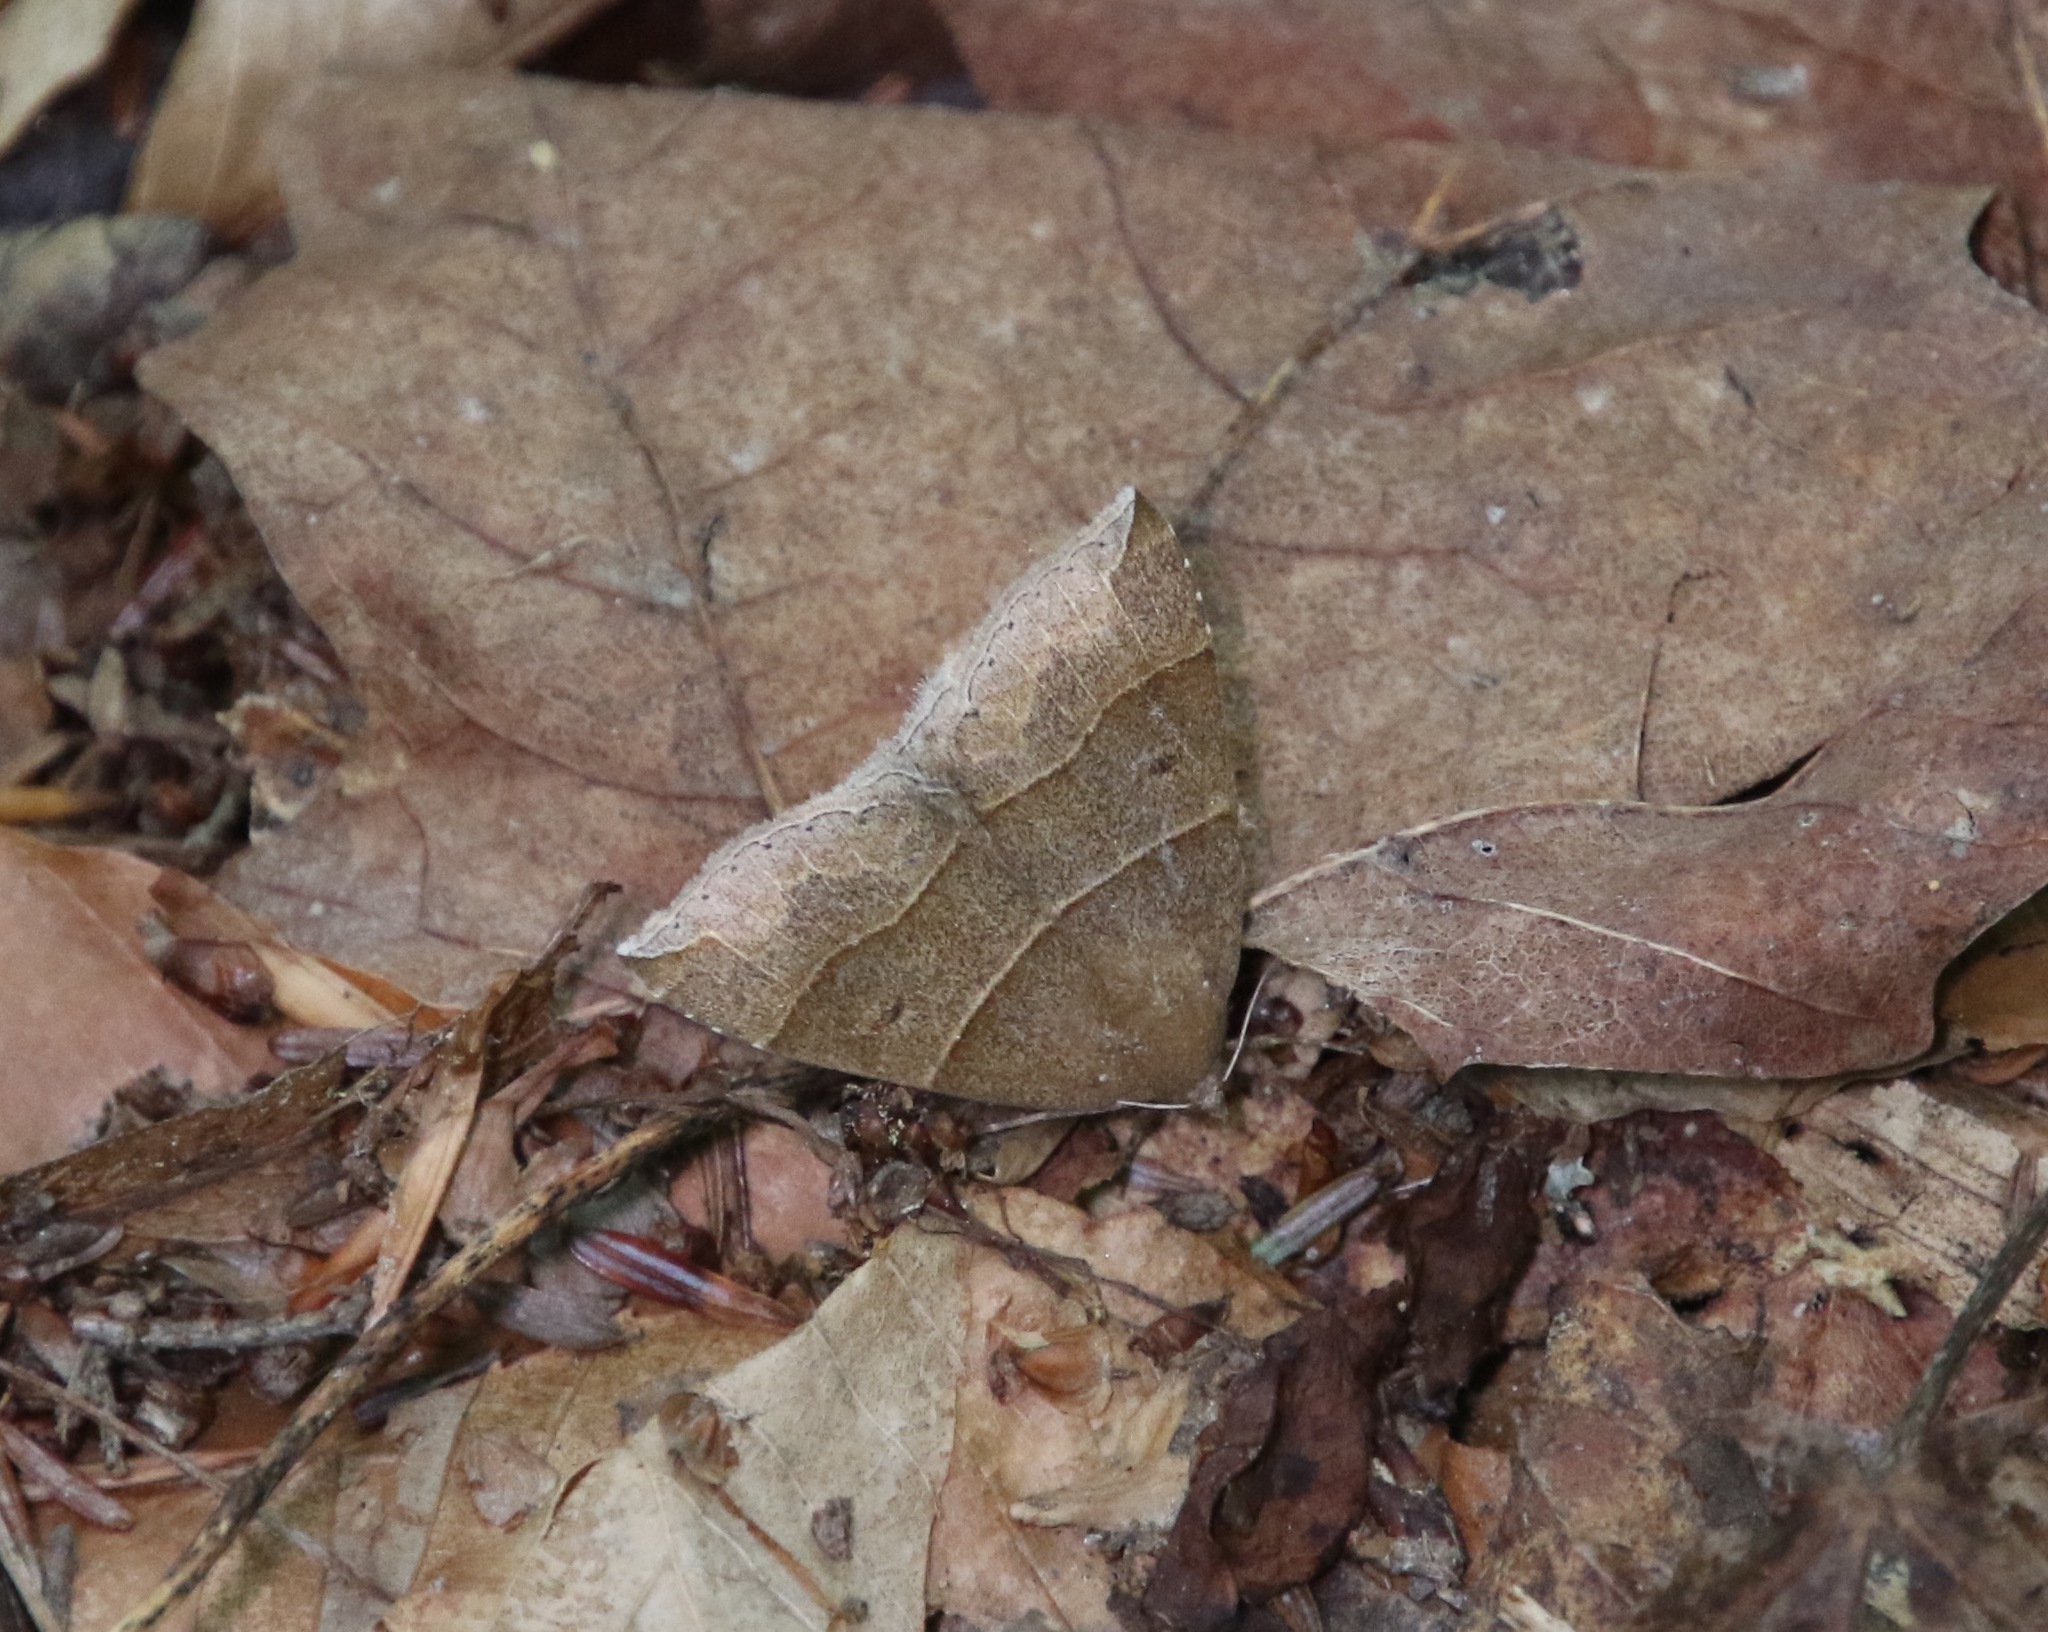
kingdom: Animalia
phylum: Arthropoda
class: Insecta
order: Lepidoptera
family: Erebidae
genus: Parallelia
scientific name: Parallelia bistriaris
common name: Maple looper moth
